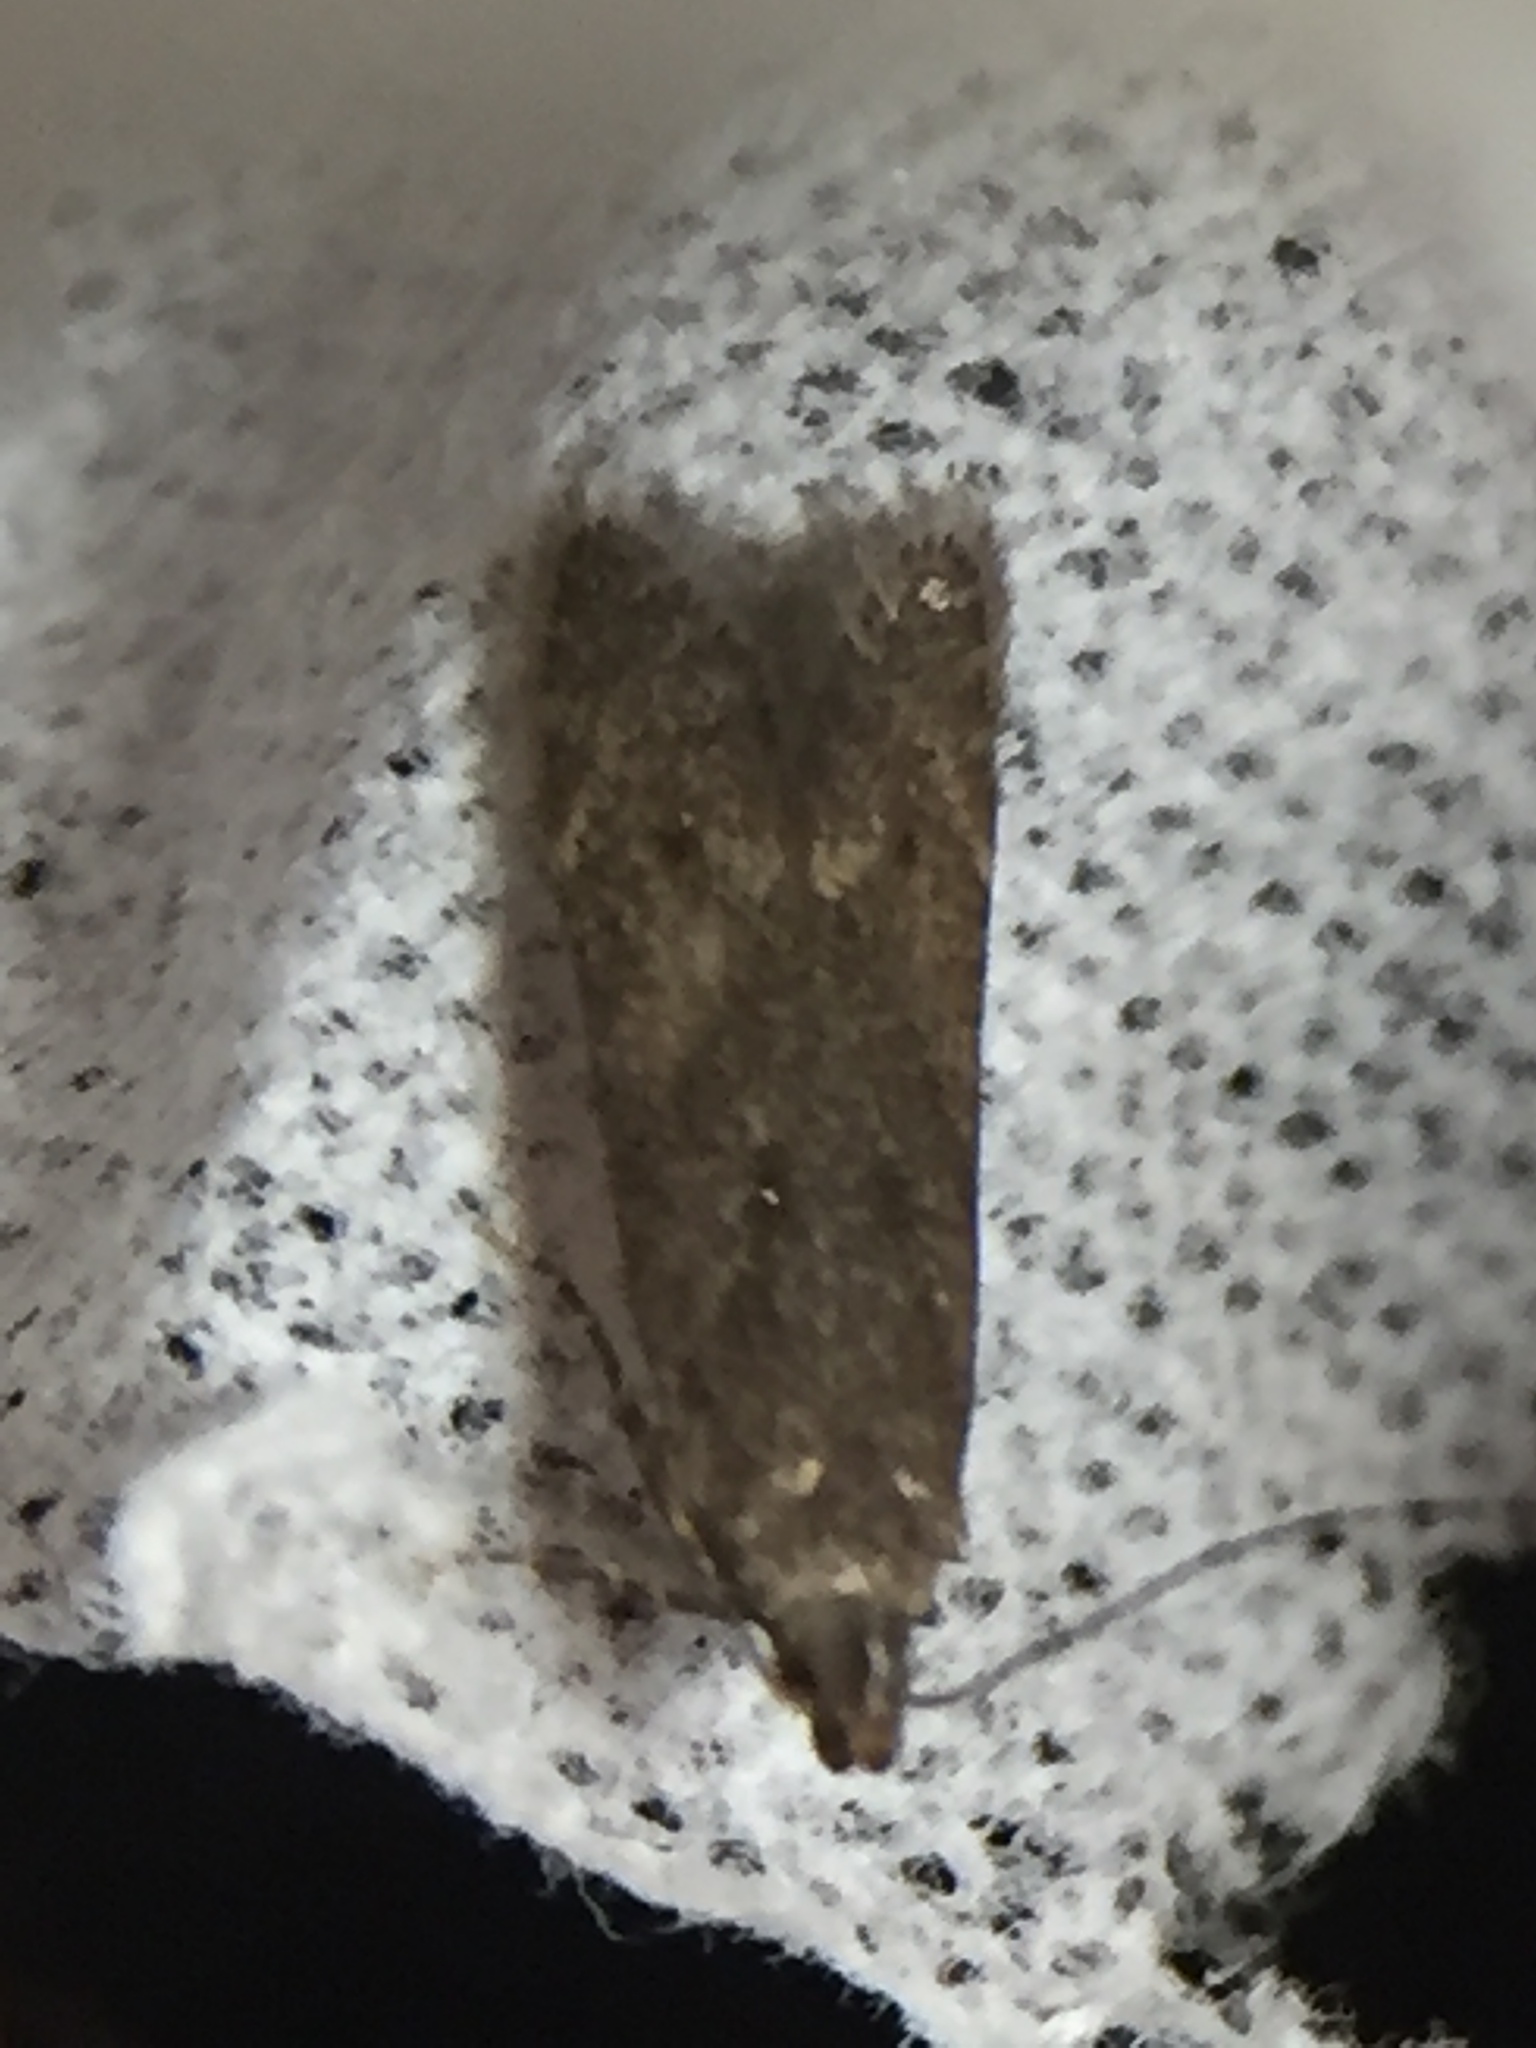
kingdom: Animalia
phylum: Arthropoda
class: Insecta
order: Lepidoptera
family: Gelechiidae
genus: Monochroa
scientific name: Monochroa
